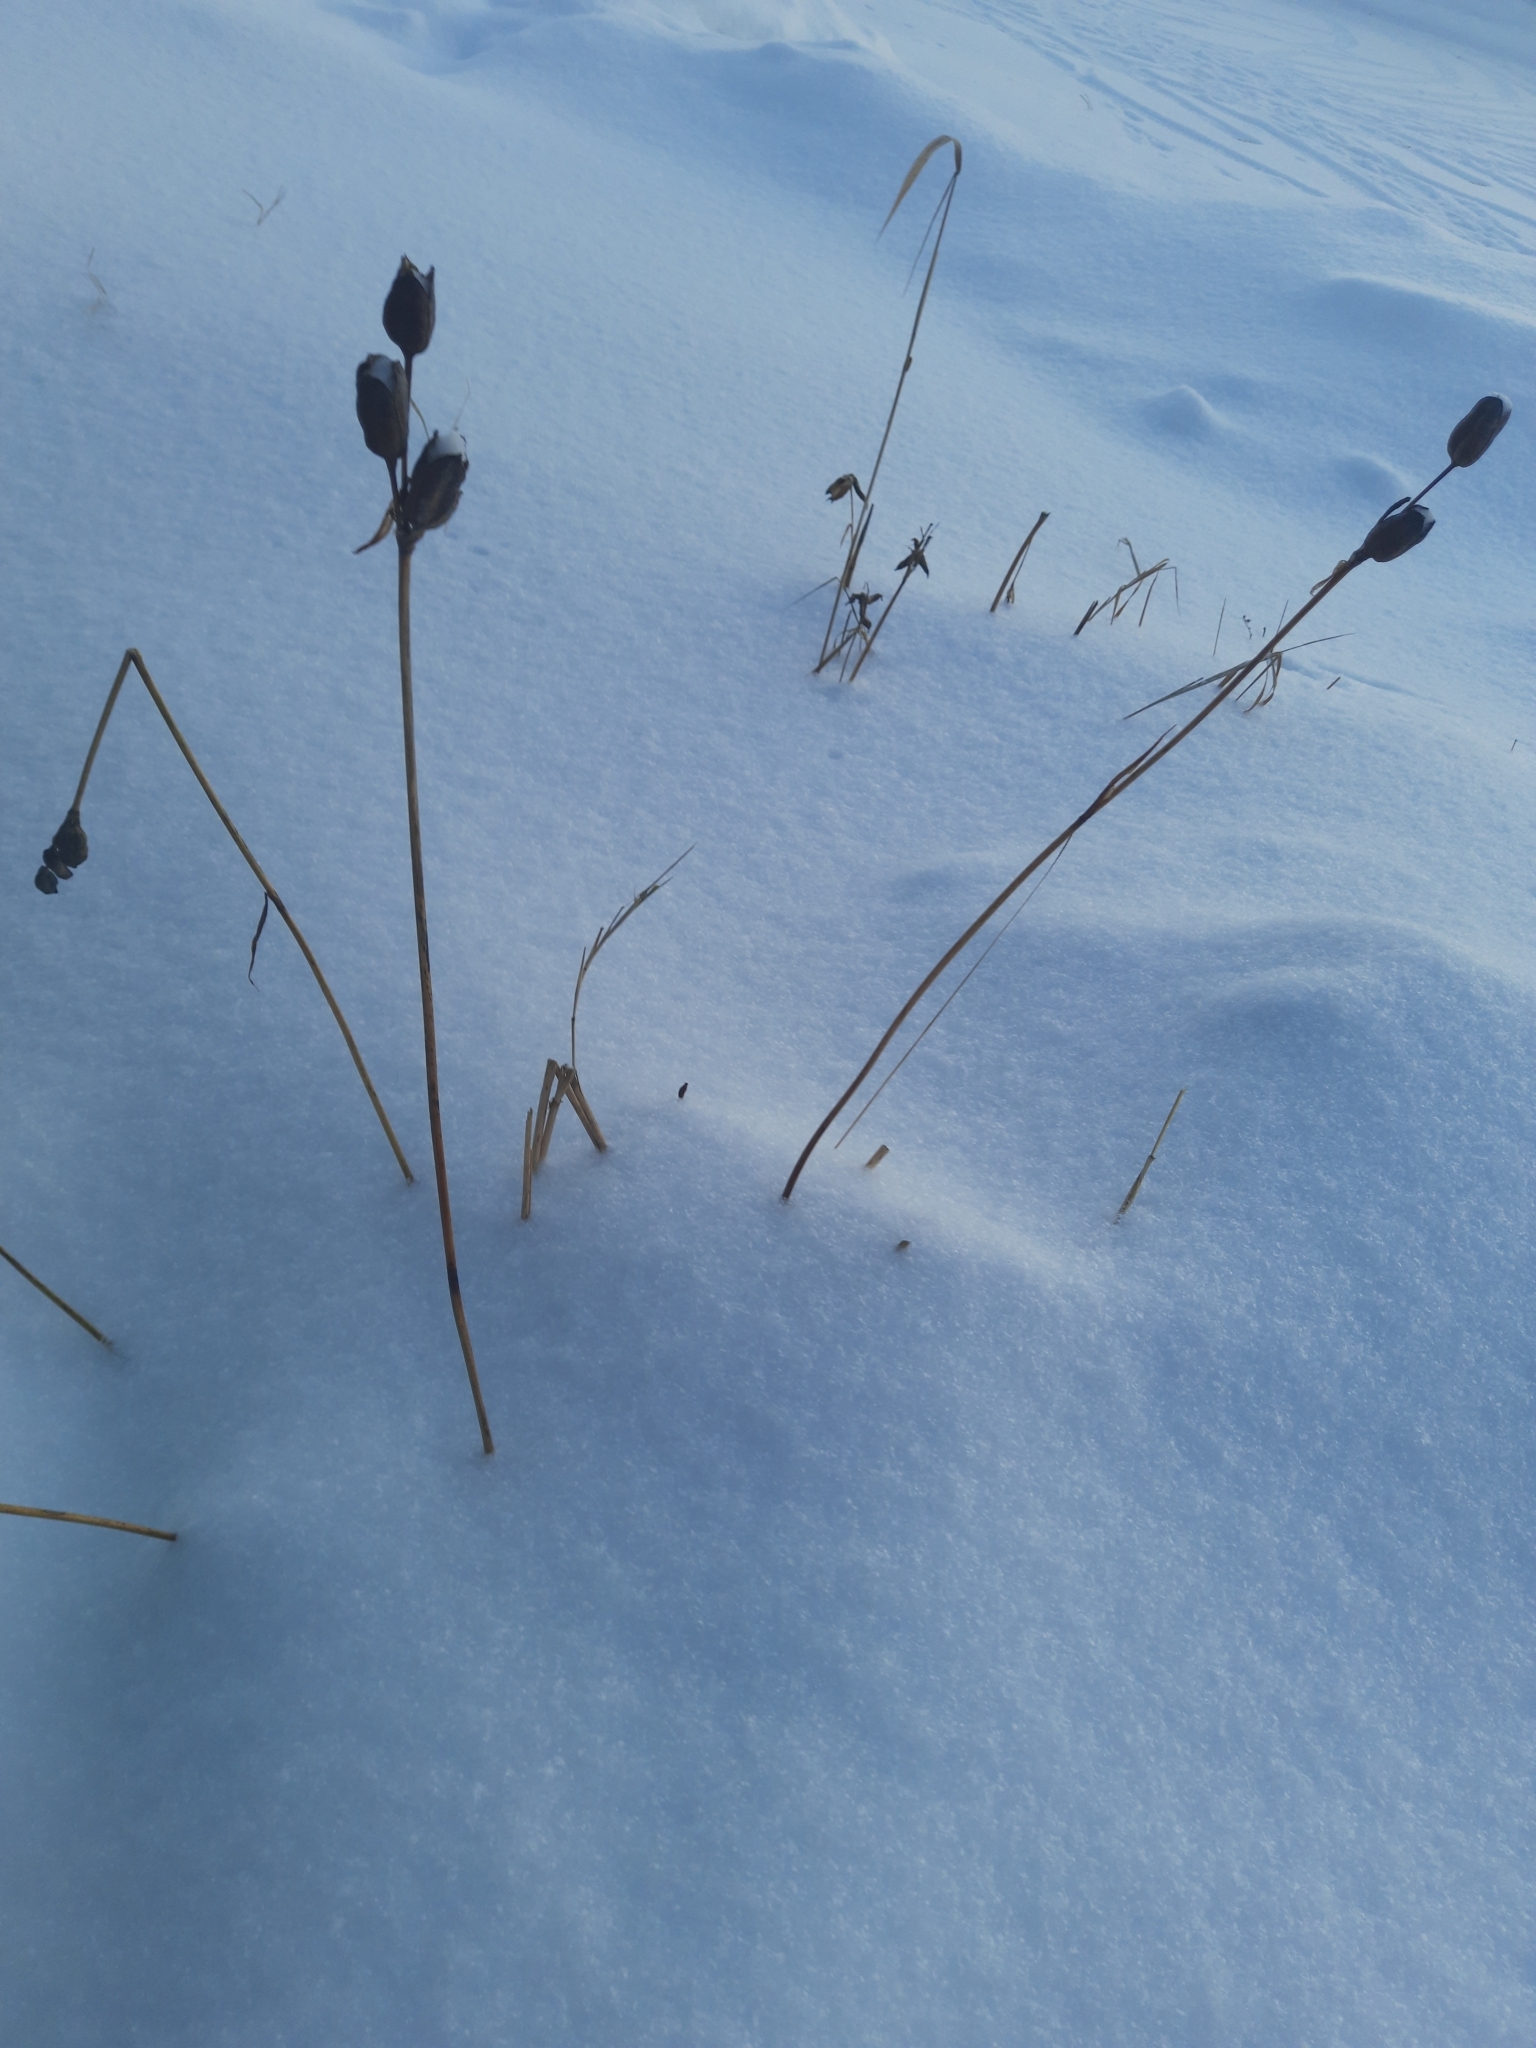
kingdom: Plantae
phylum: Tracheophyta
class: Liliopsida
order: Asparagales
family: Iridaceae
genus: Iris
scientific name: Iris sibirica
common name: Siberian iris
